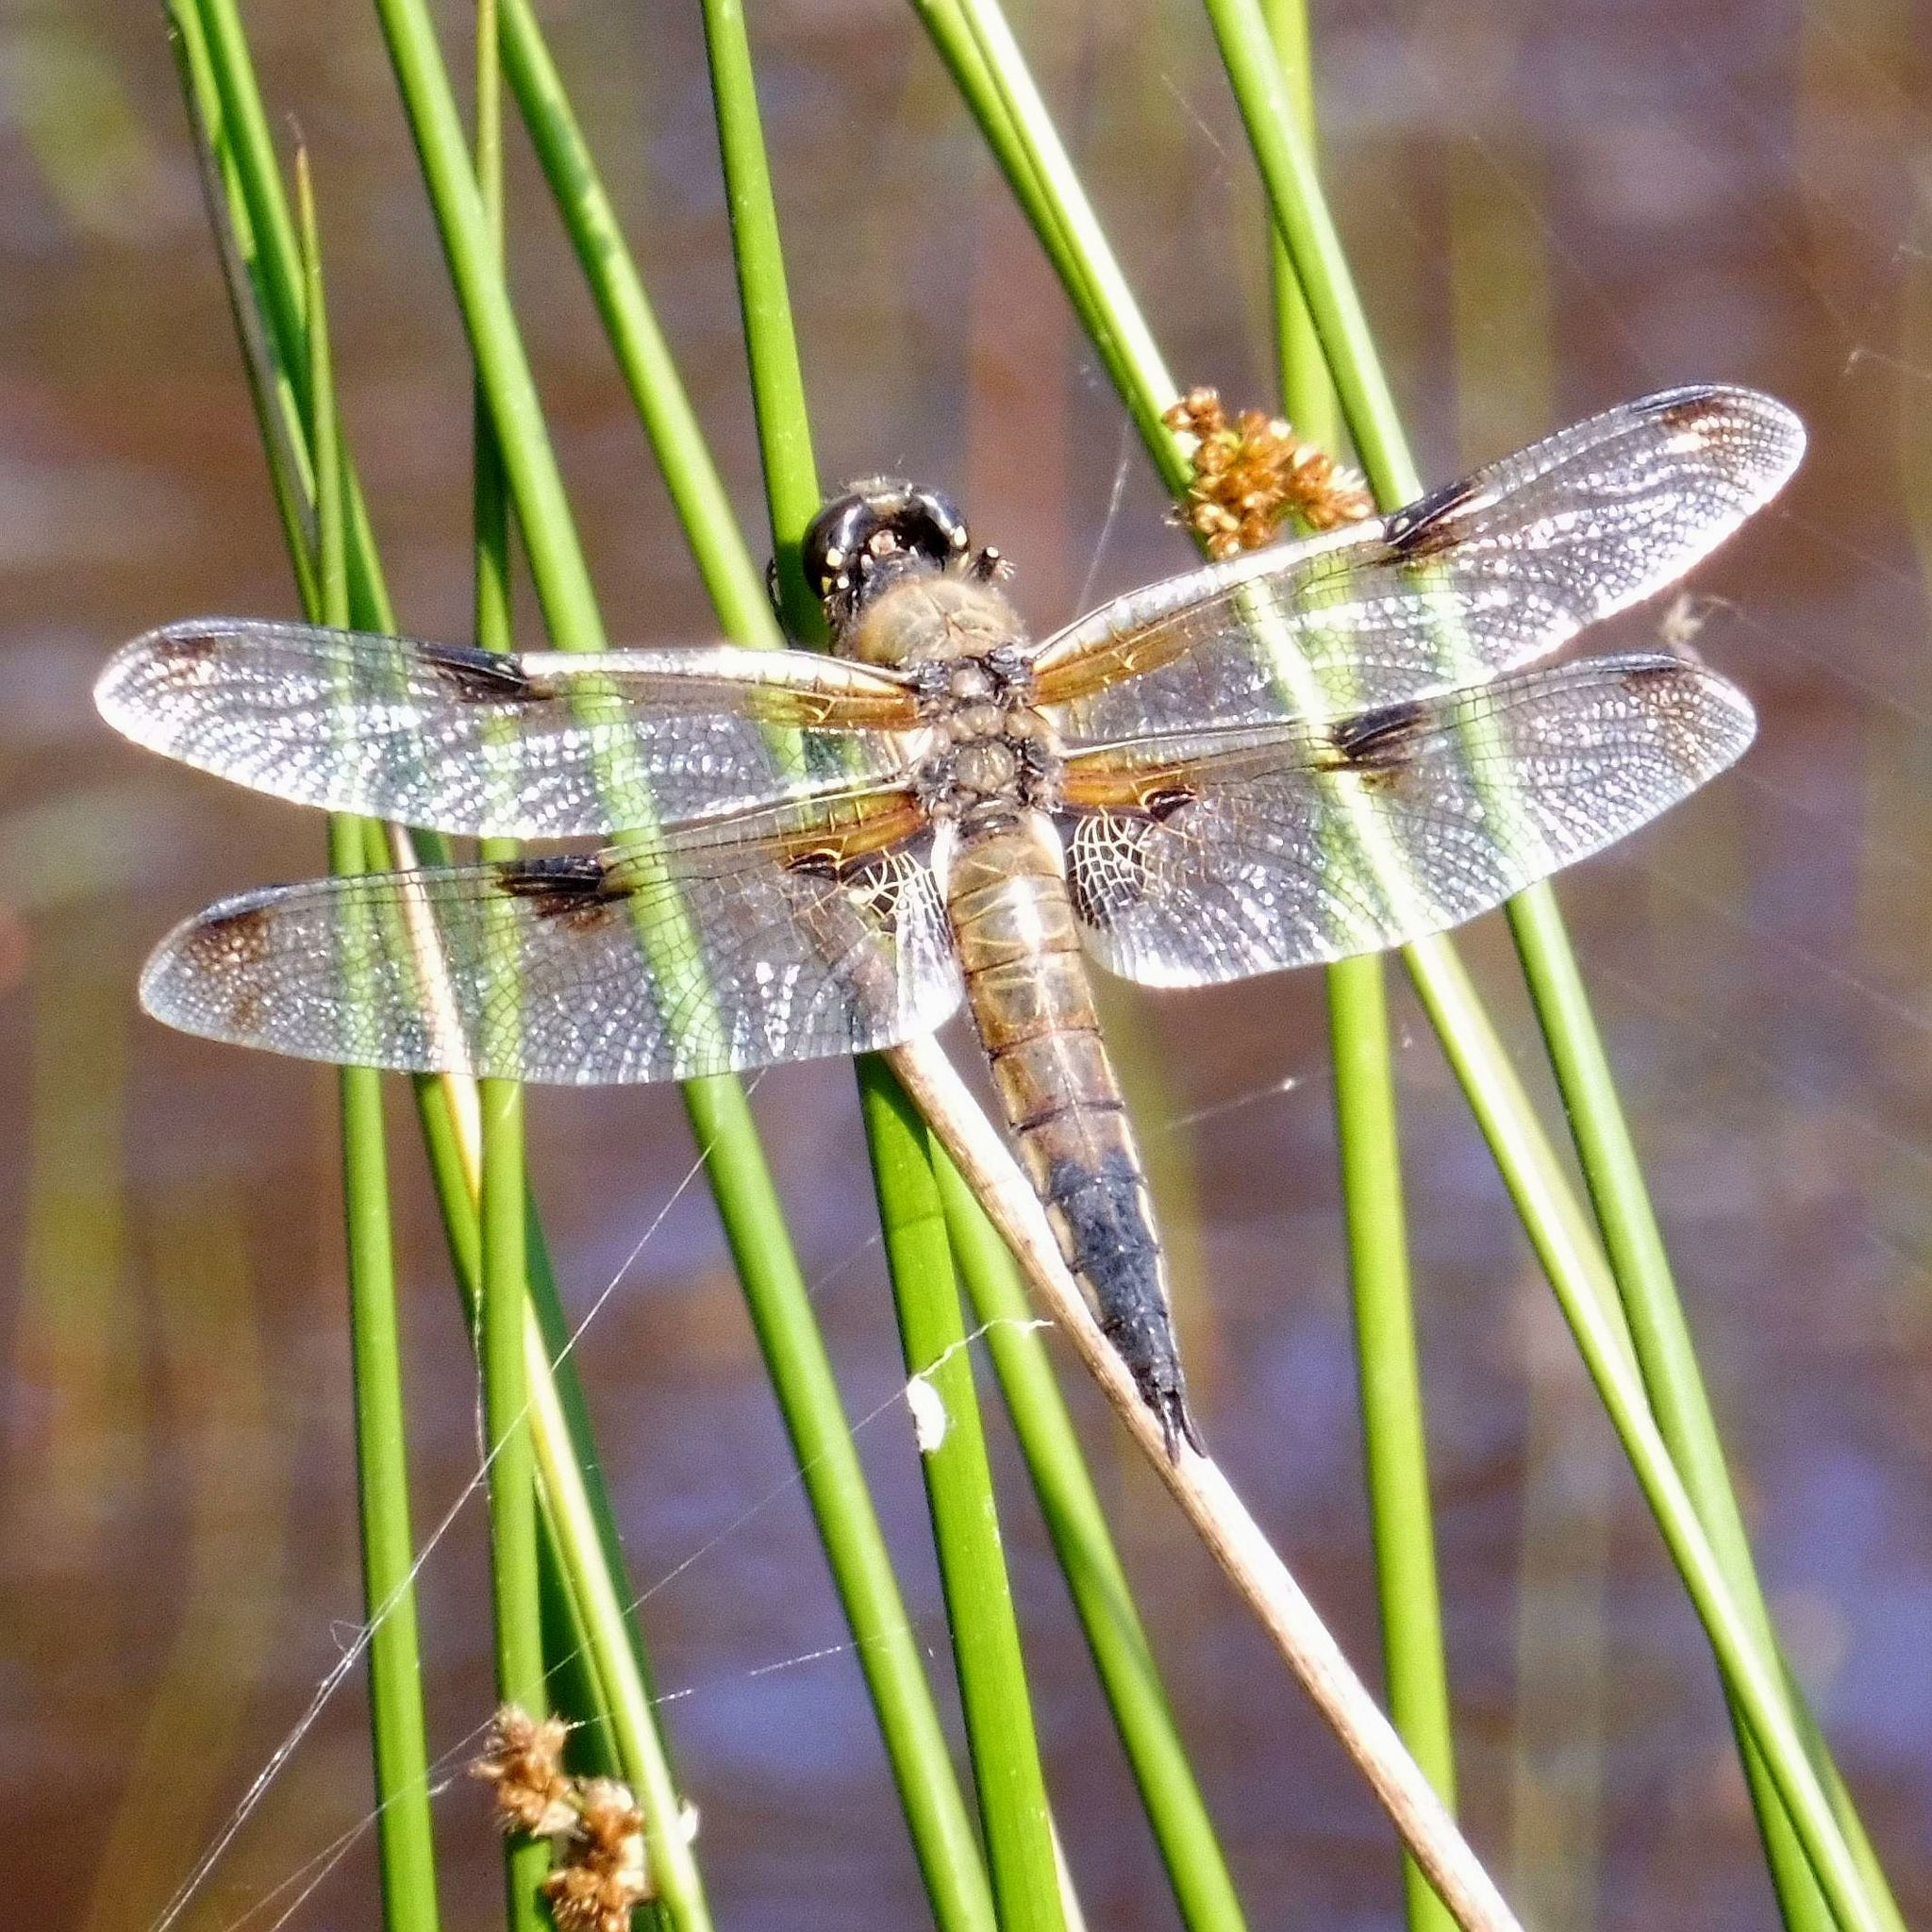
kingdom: Animalia
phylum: Arthropoda
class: Insecta
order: Odonata
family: Libellulidae
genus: Libellula
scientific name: Libellula quadrimaculata
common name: Four-spotted chaser
